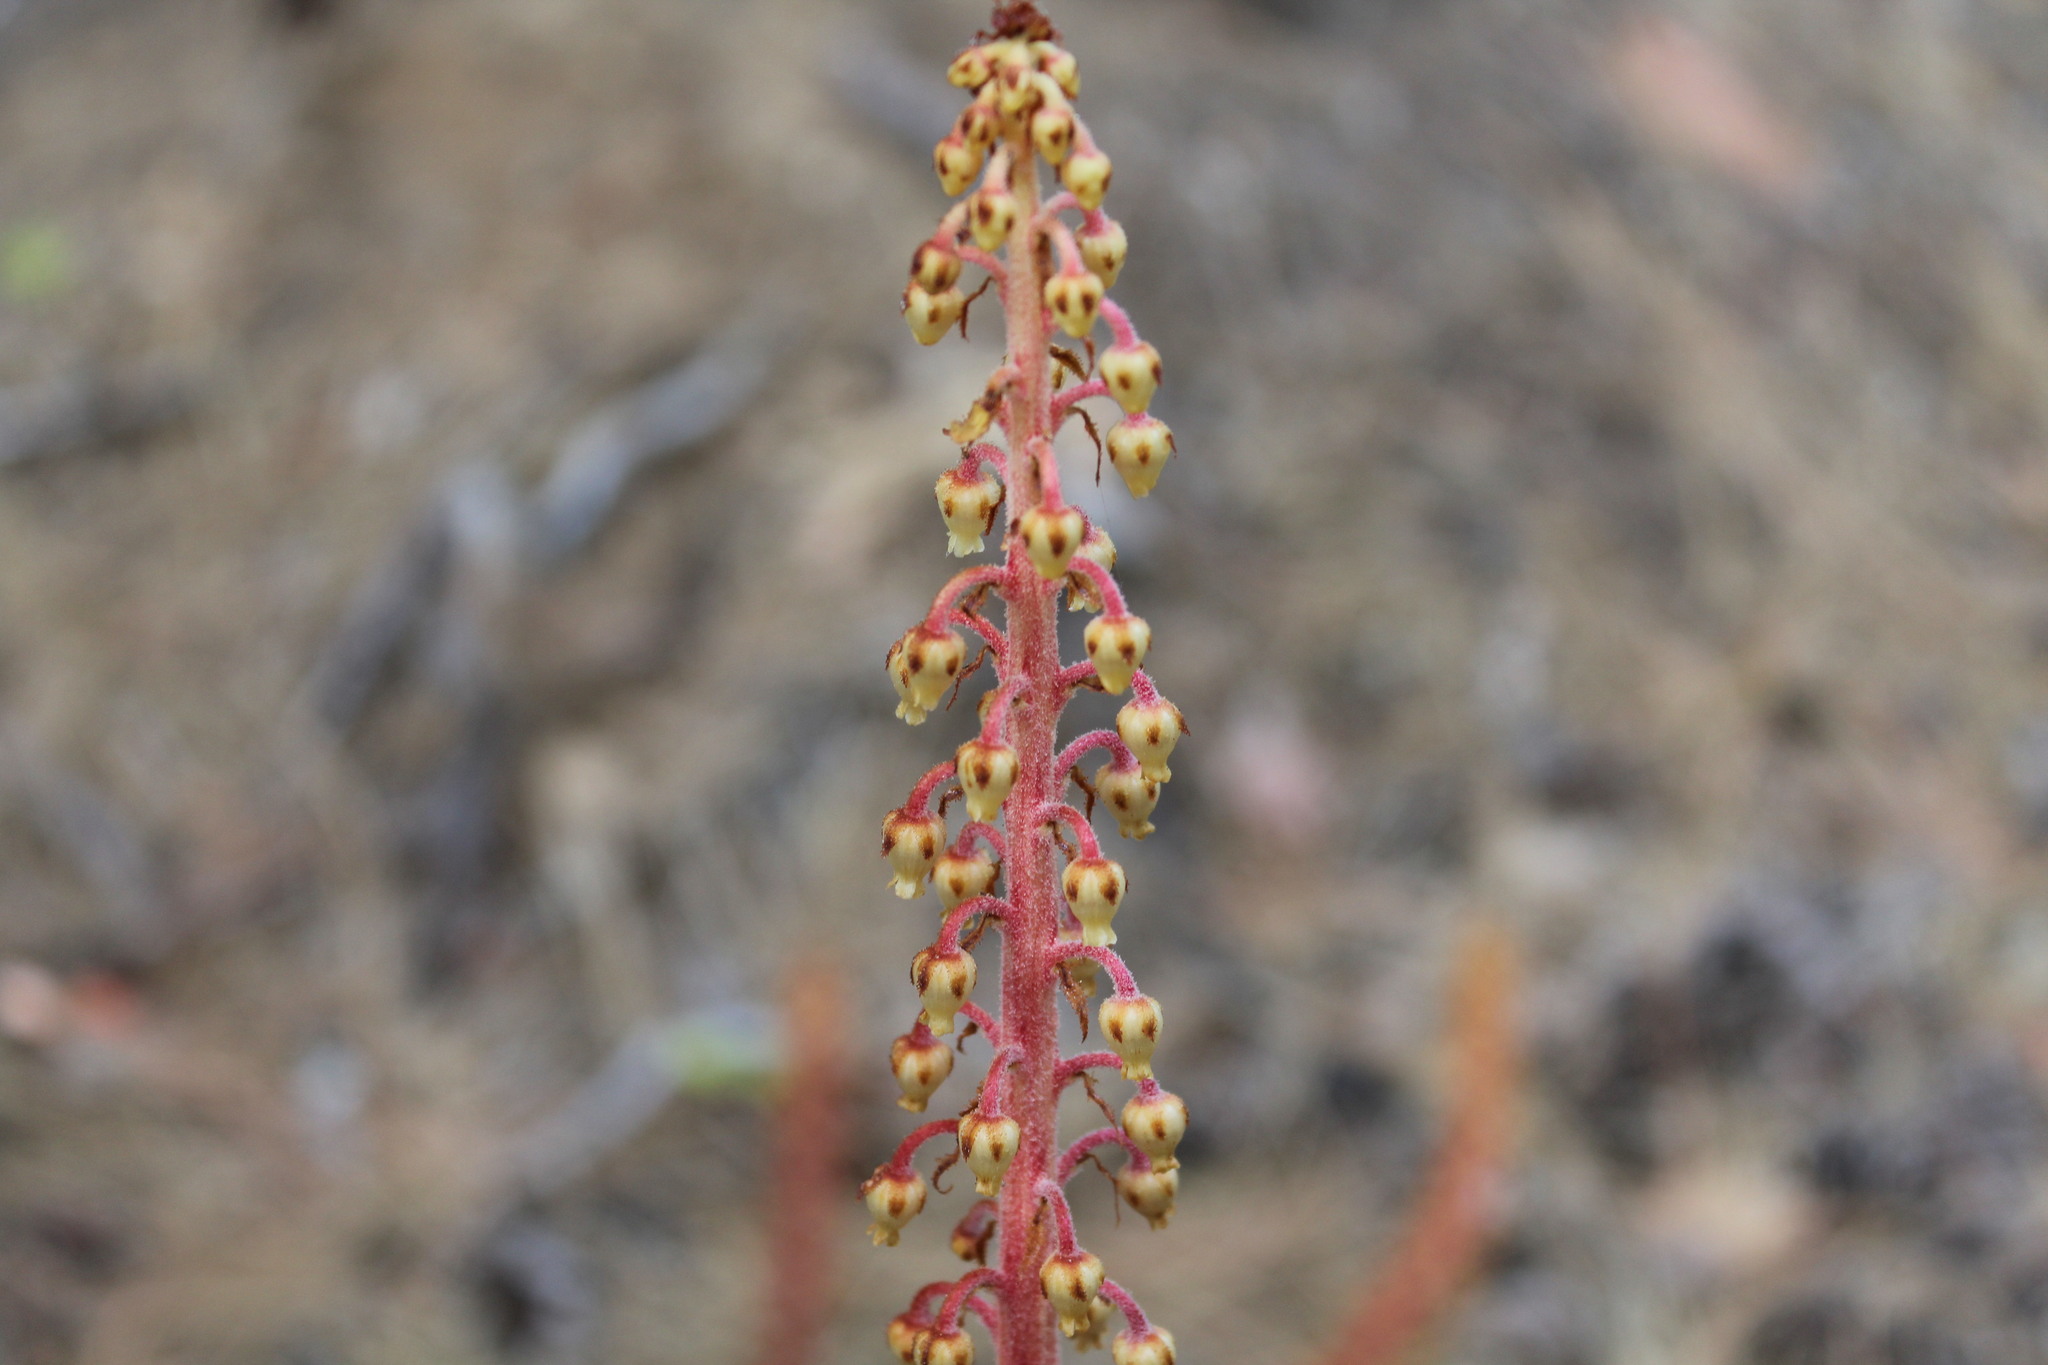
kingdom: Plantae
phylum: Tracheophyta
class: Magnoliopsida
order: Ericales
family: Ericaceae
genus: Pterospora
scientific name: Pterospora andromedea
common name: Giant bird's-nest
